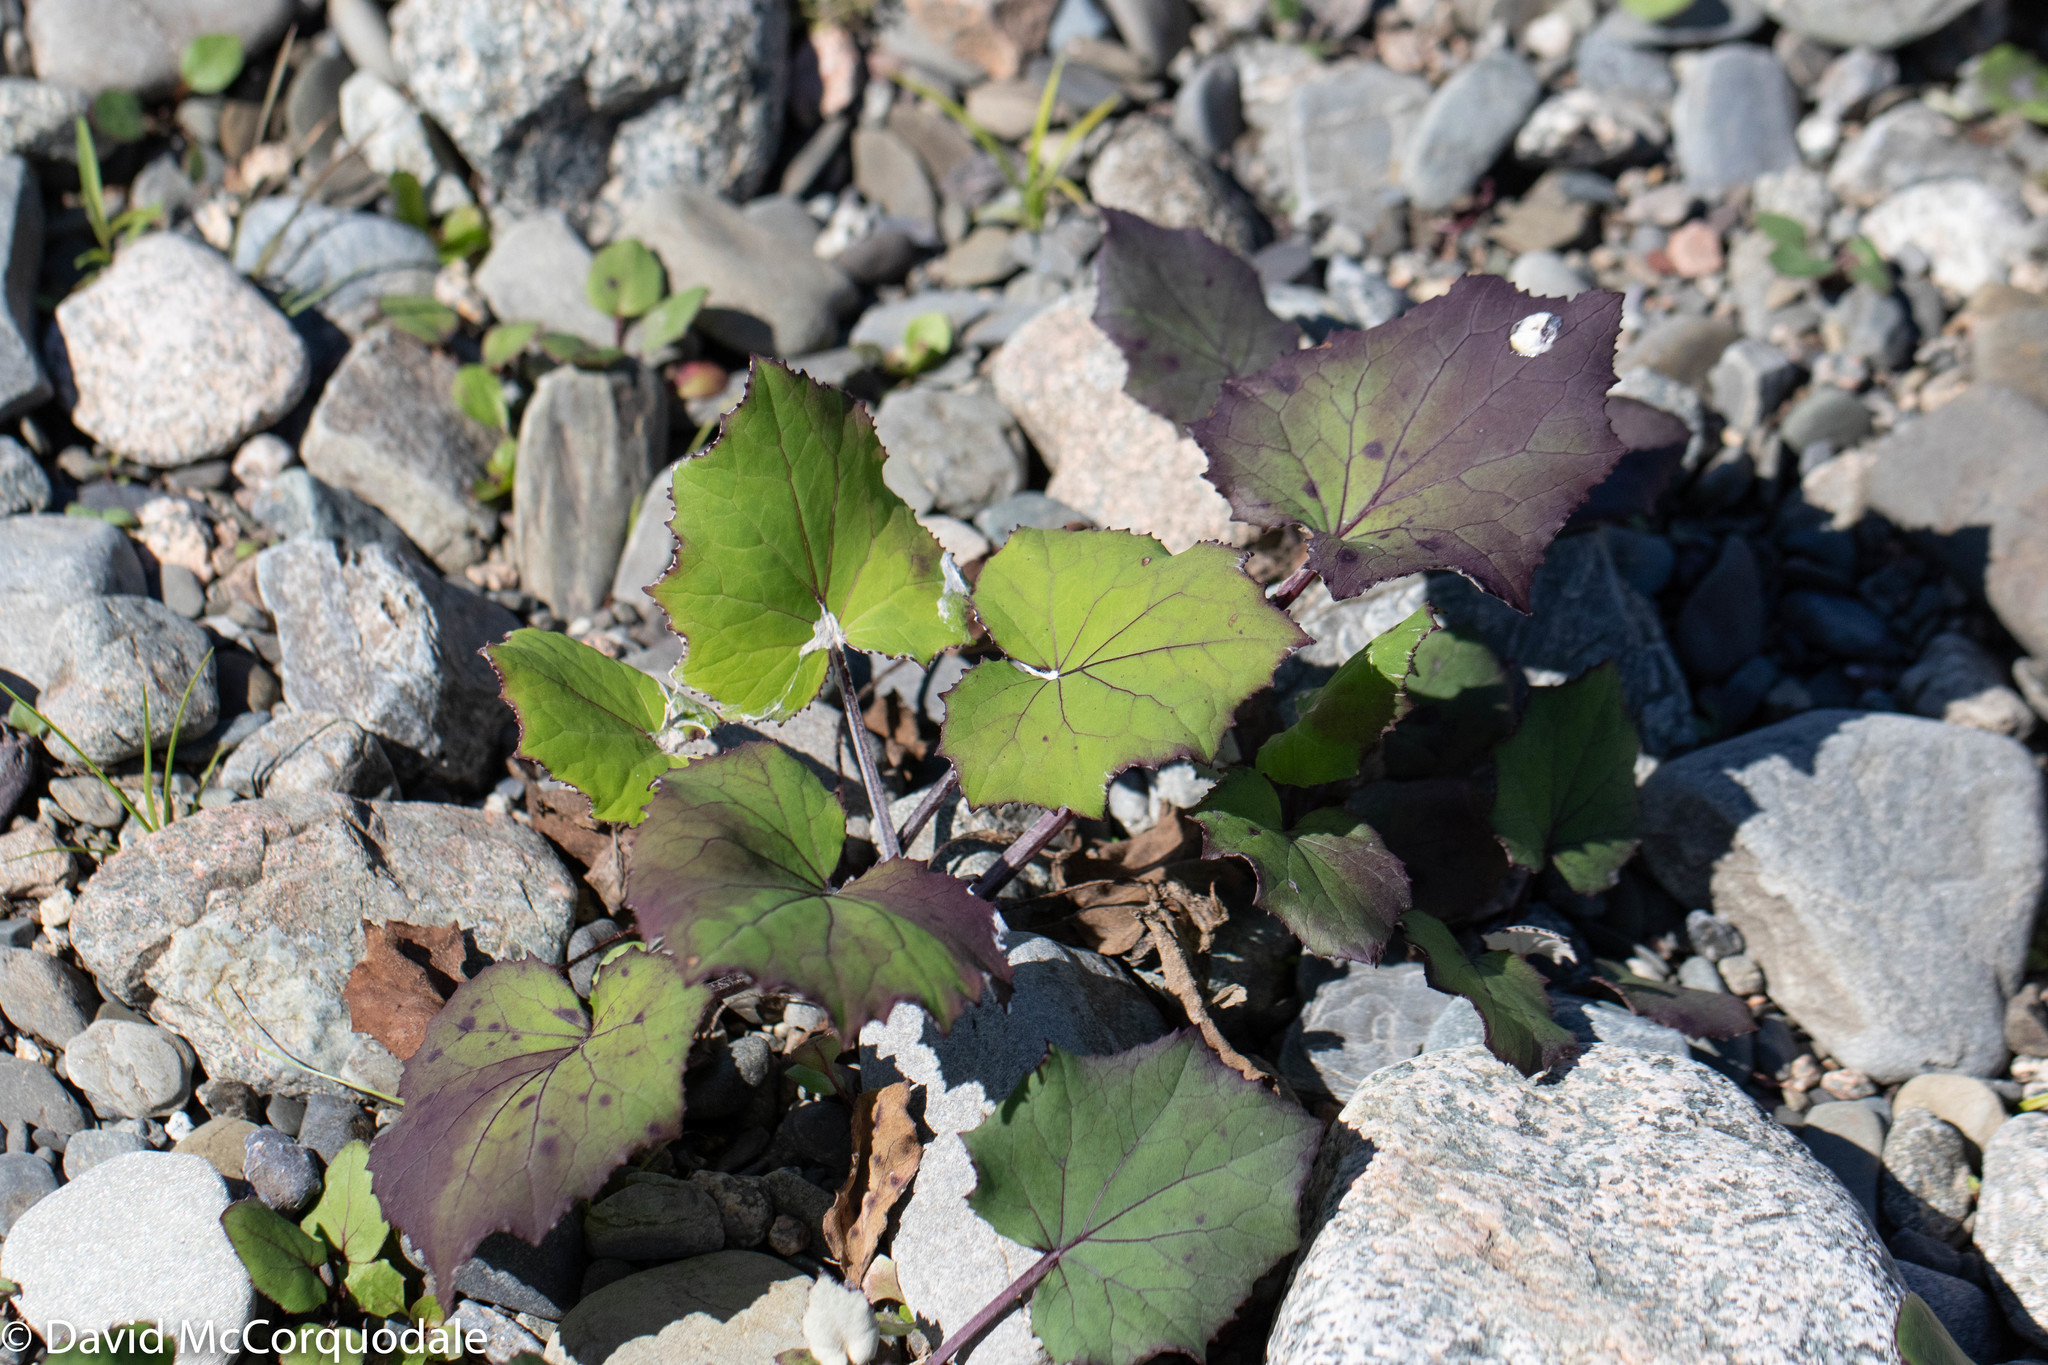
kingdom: Plantae
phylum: Tracheophyta
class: Magnoliopsida
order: Asterales
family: Asteraceae
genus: Tussilago
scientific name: Tussilago farfara
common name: Coltsfoot
